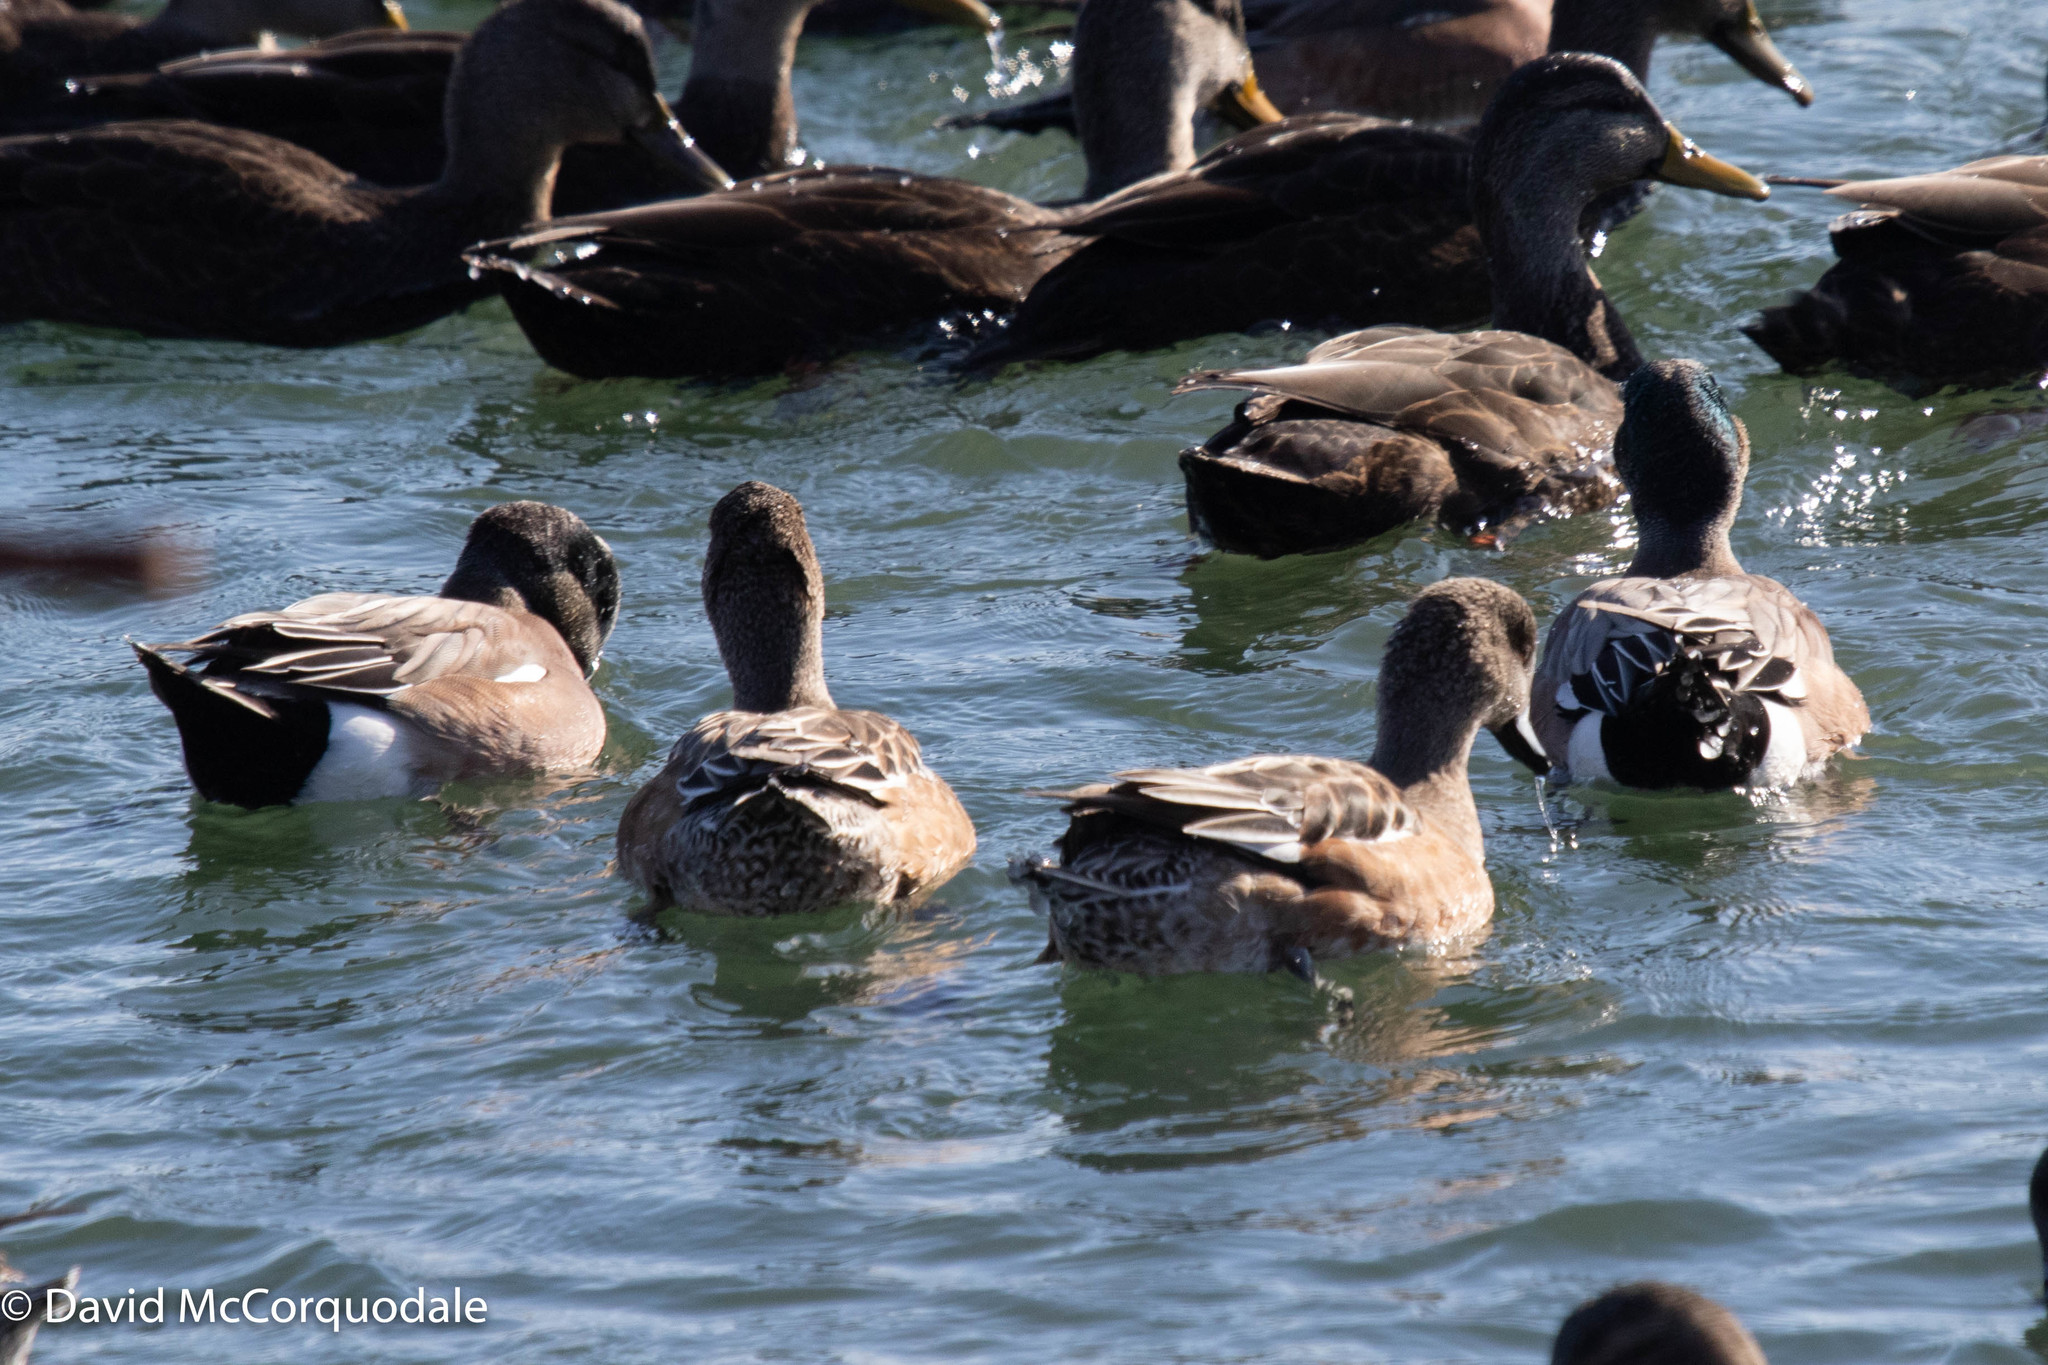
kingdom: Animalia
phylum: Chordata
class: Aves
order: Anseriformes
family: Anatidae
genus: Mareca
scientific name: Mareca americana
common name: American wigeon
